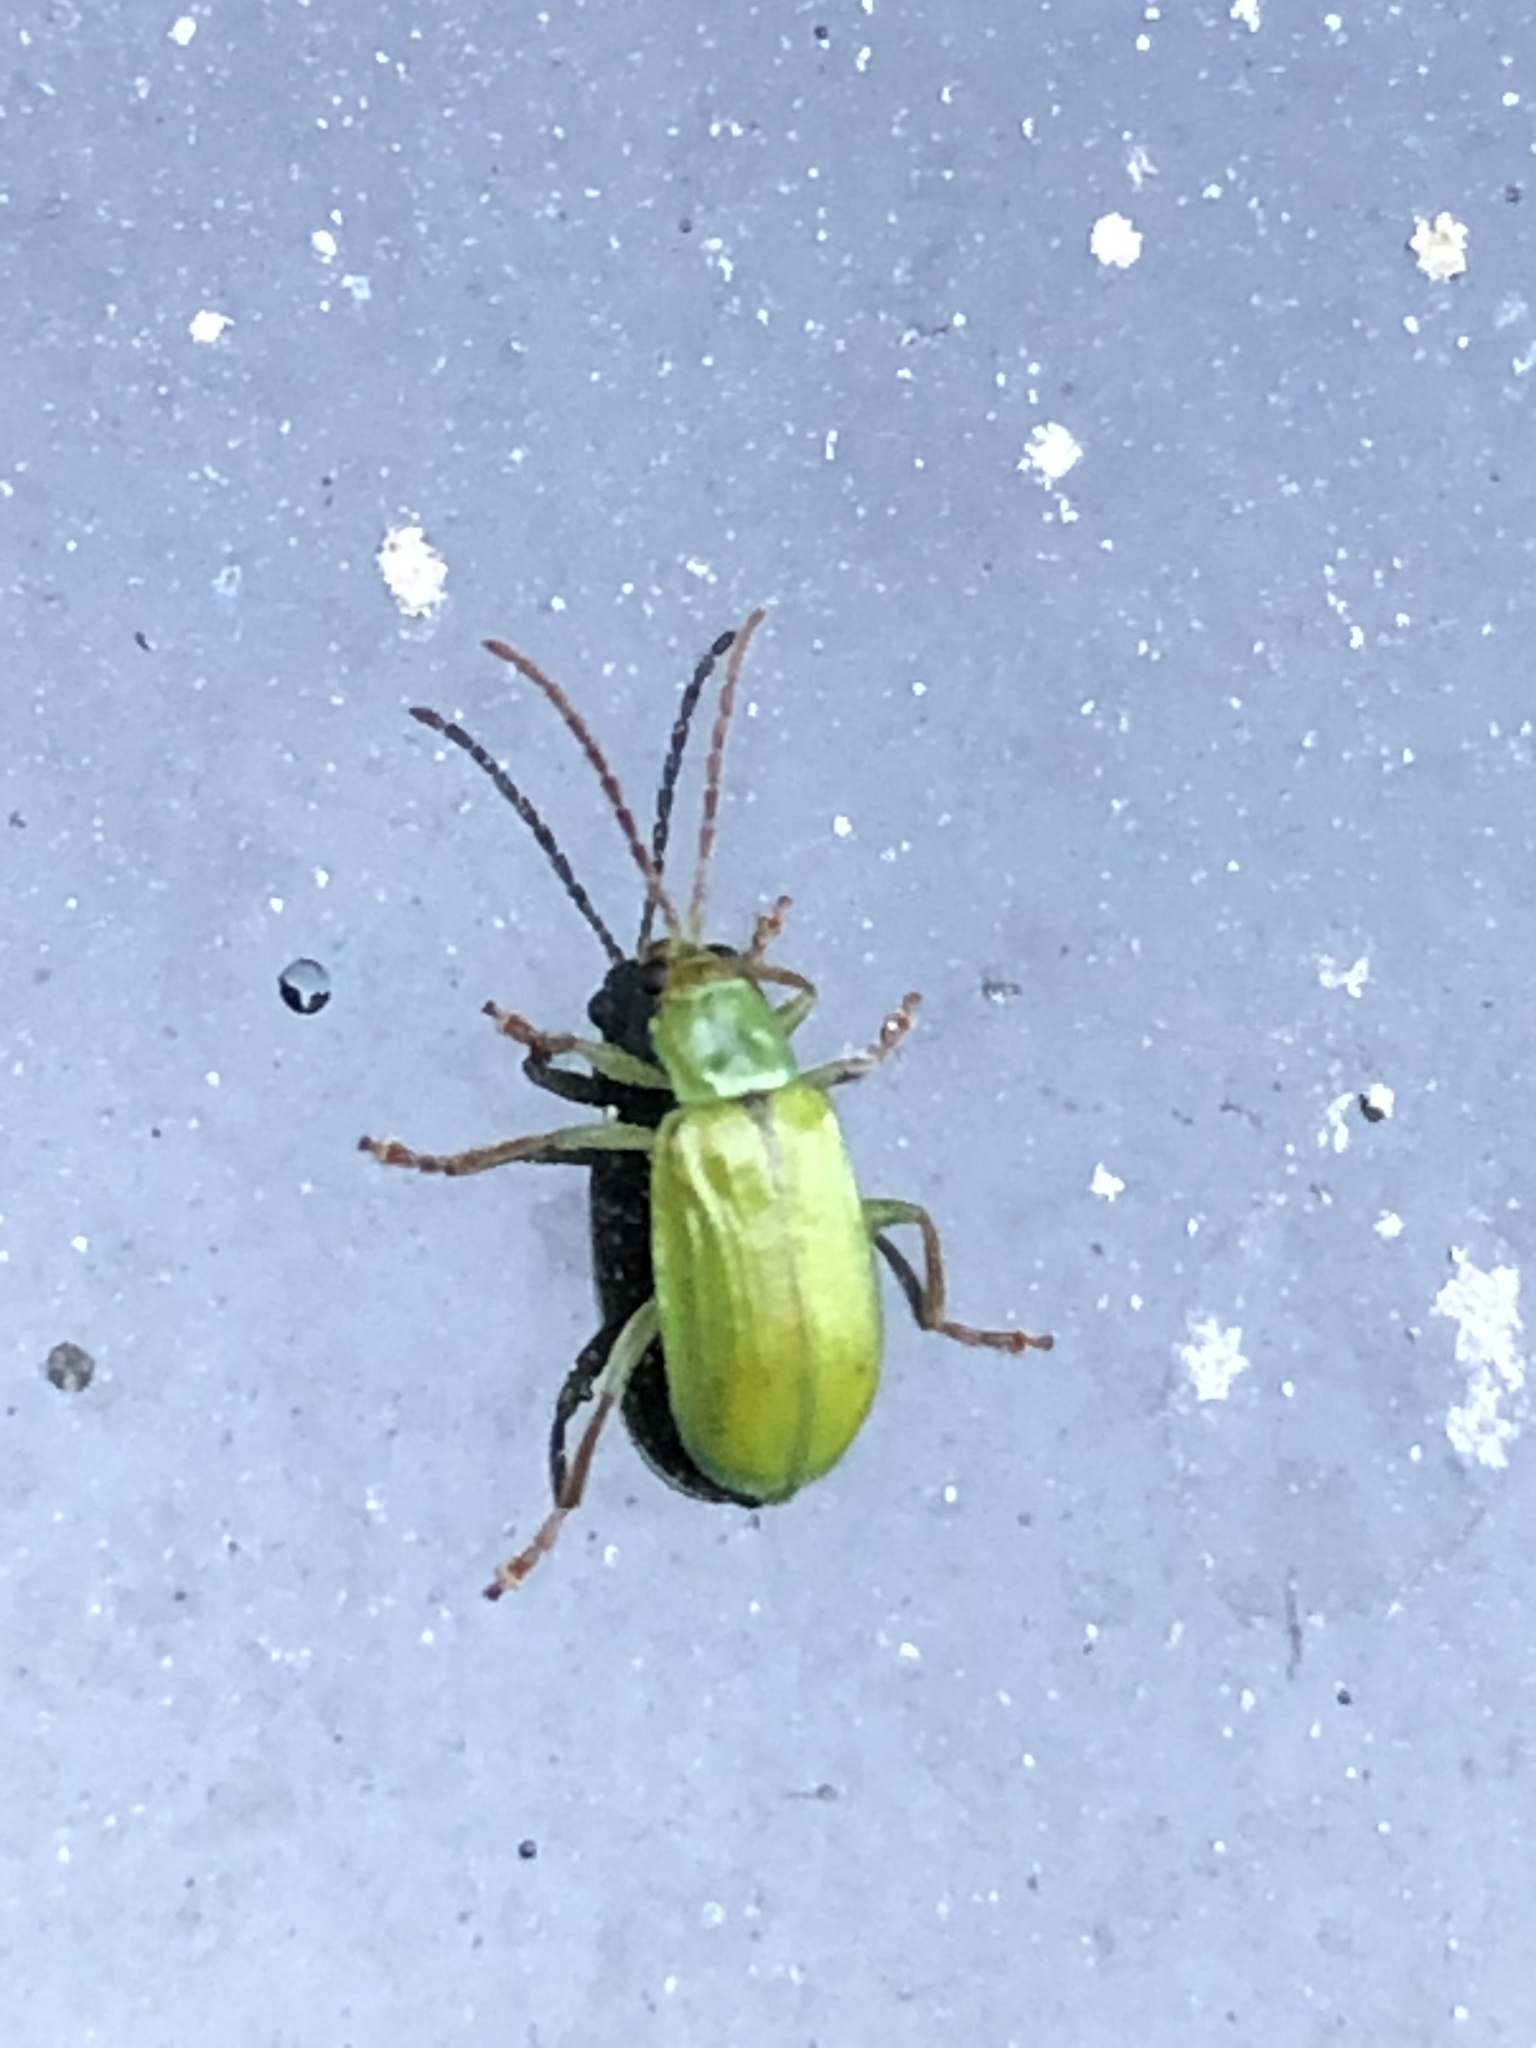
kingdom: Animalia
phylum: Arthropoda
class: Insecta
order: Coleoptera
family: Chrysomelidae
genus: Diabrotica
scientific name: Diabrotica barberi
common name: Northern corn rootworm
